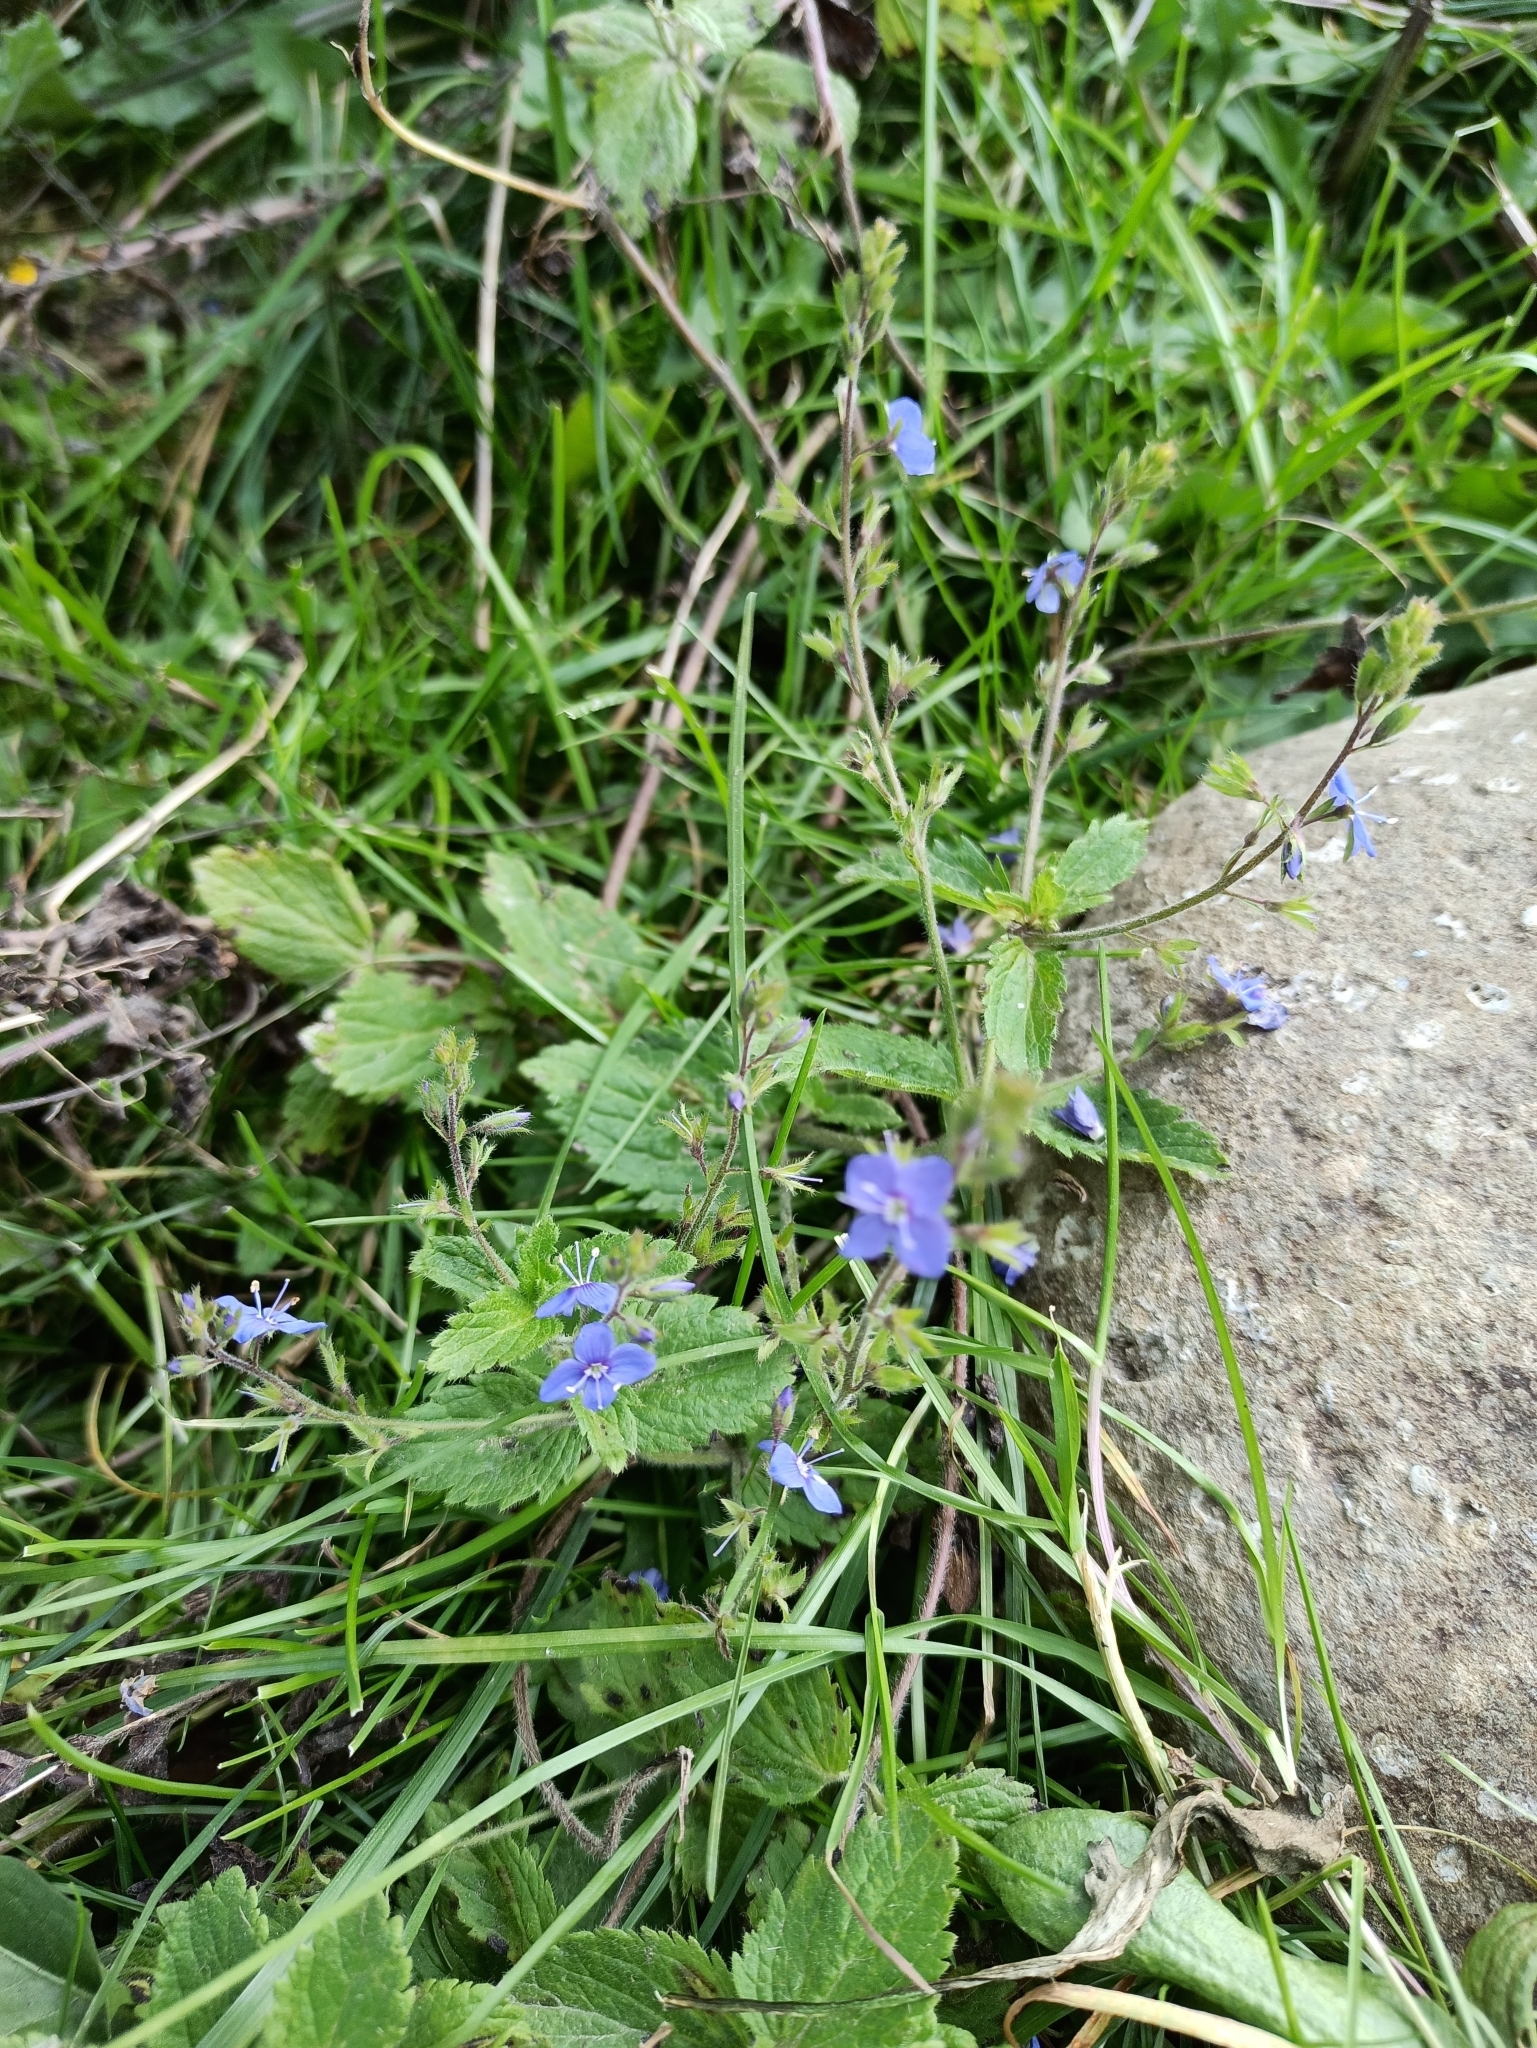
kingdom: Plantae
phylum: Tracheophyta
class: Magnoliopsida
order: Lamiales
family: Plantaginaceae
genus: Veronica
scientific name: Veronica laxa
